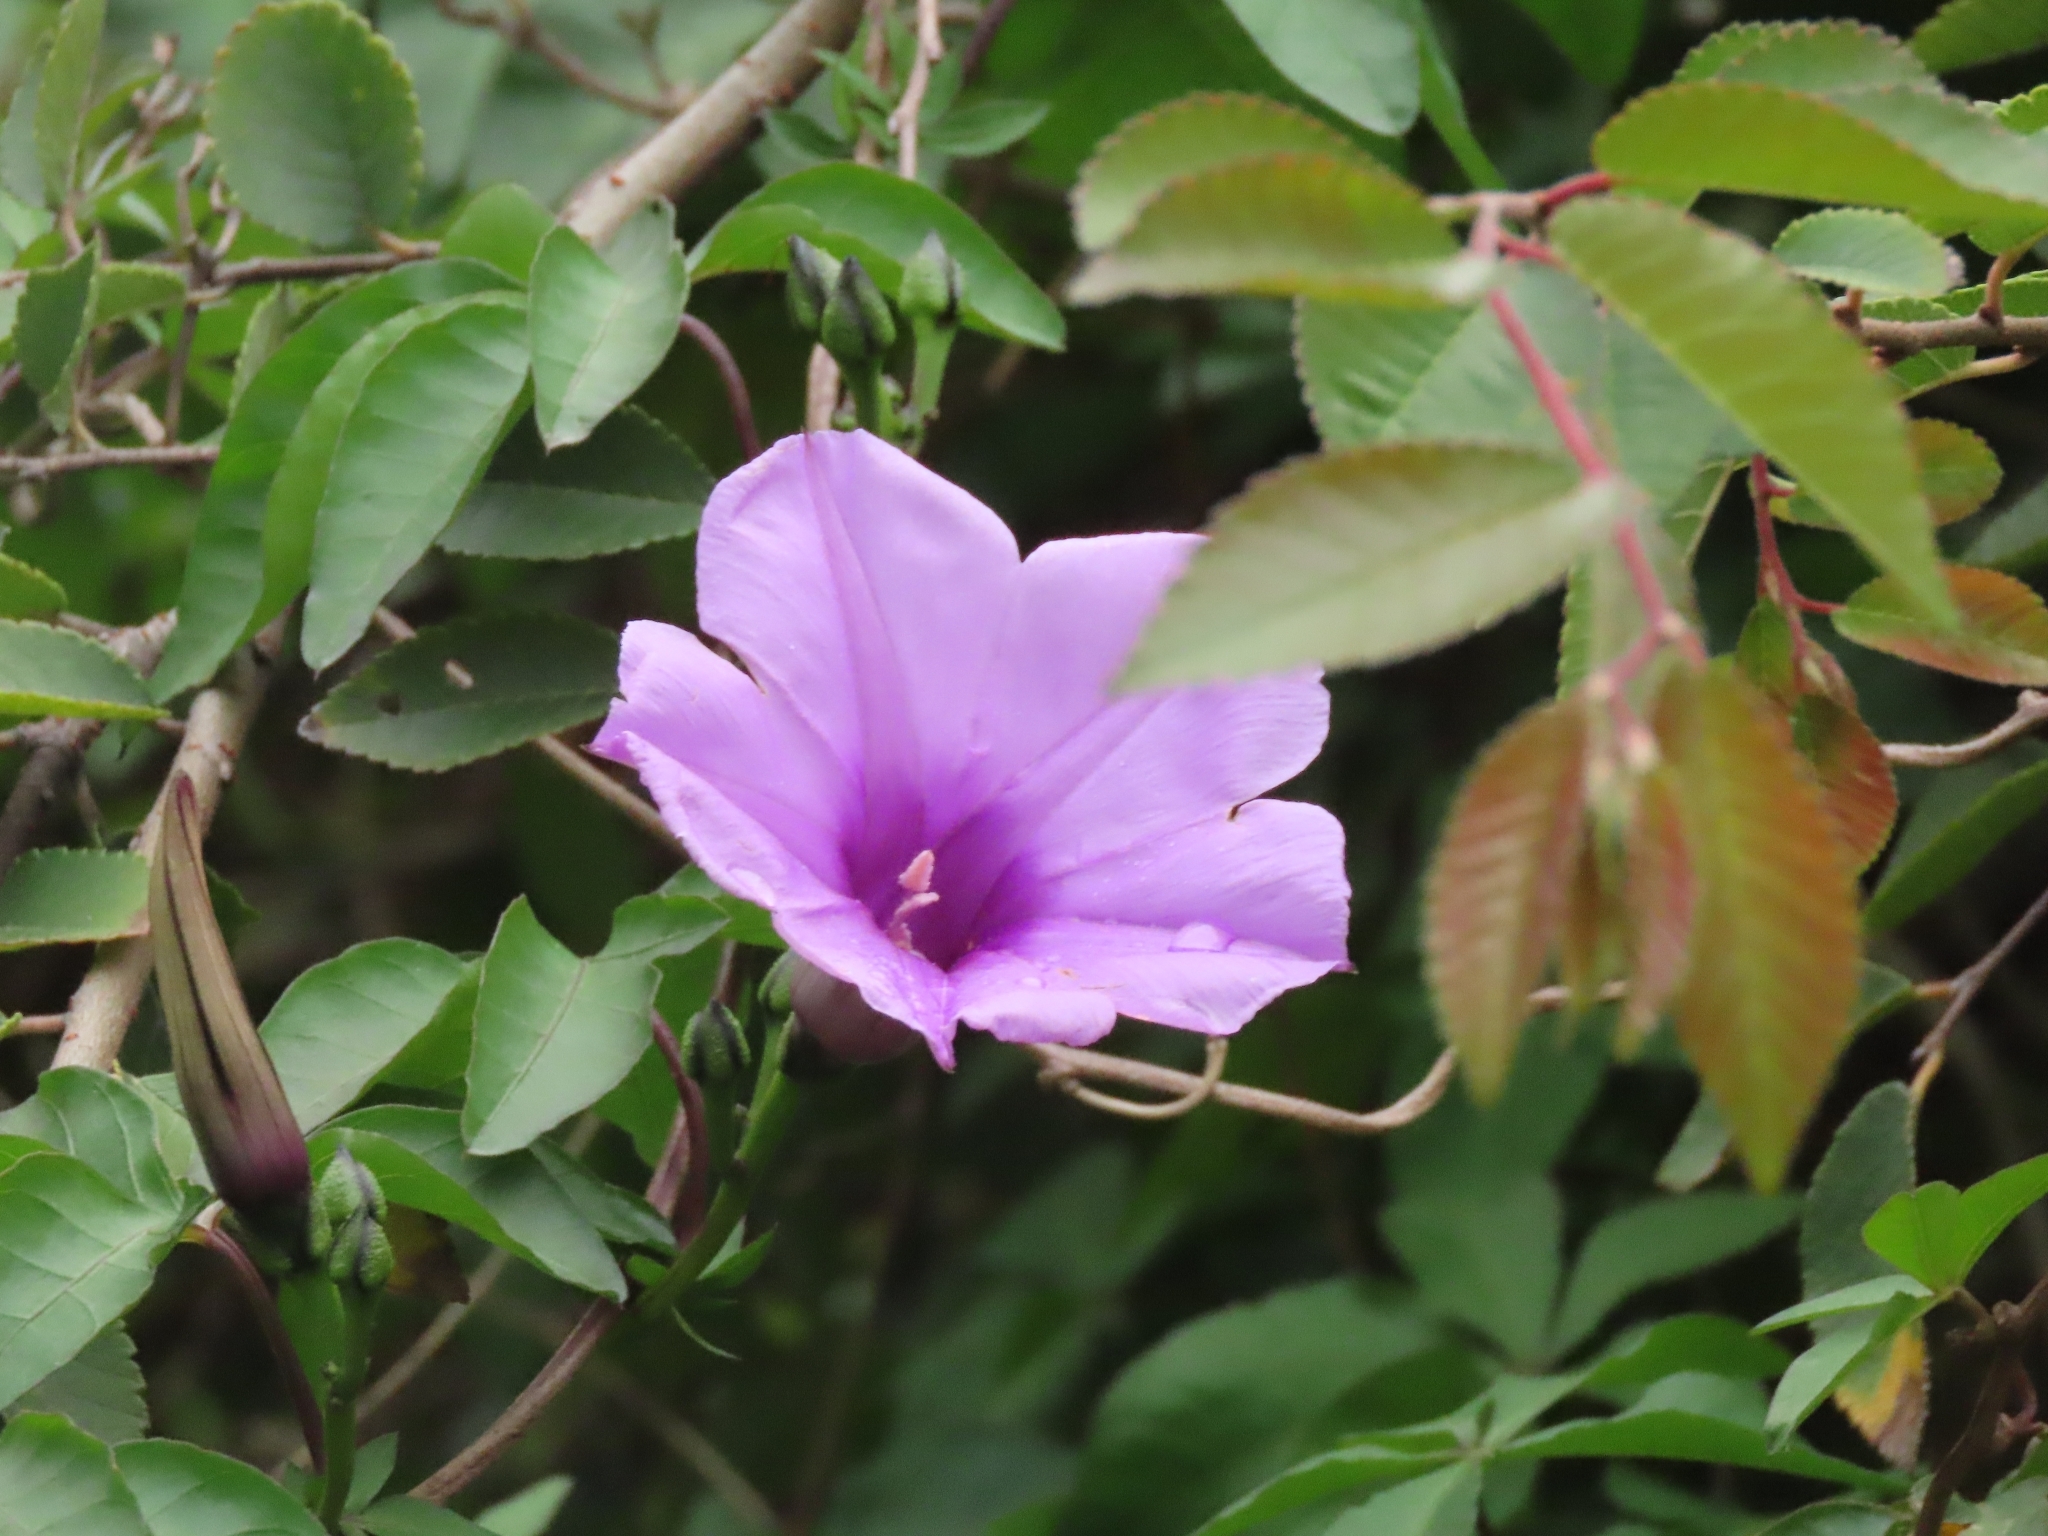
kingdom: Plantae
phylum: Tracheophyta
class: Magnoliopsida
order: Solanales
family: Convolvulaceae
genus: Ipomoea
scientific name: Ipomoea cairica
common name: Mile a minute vine
